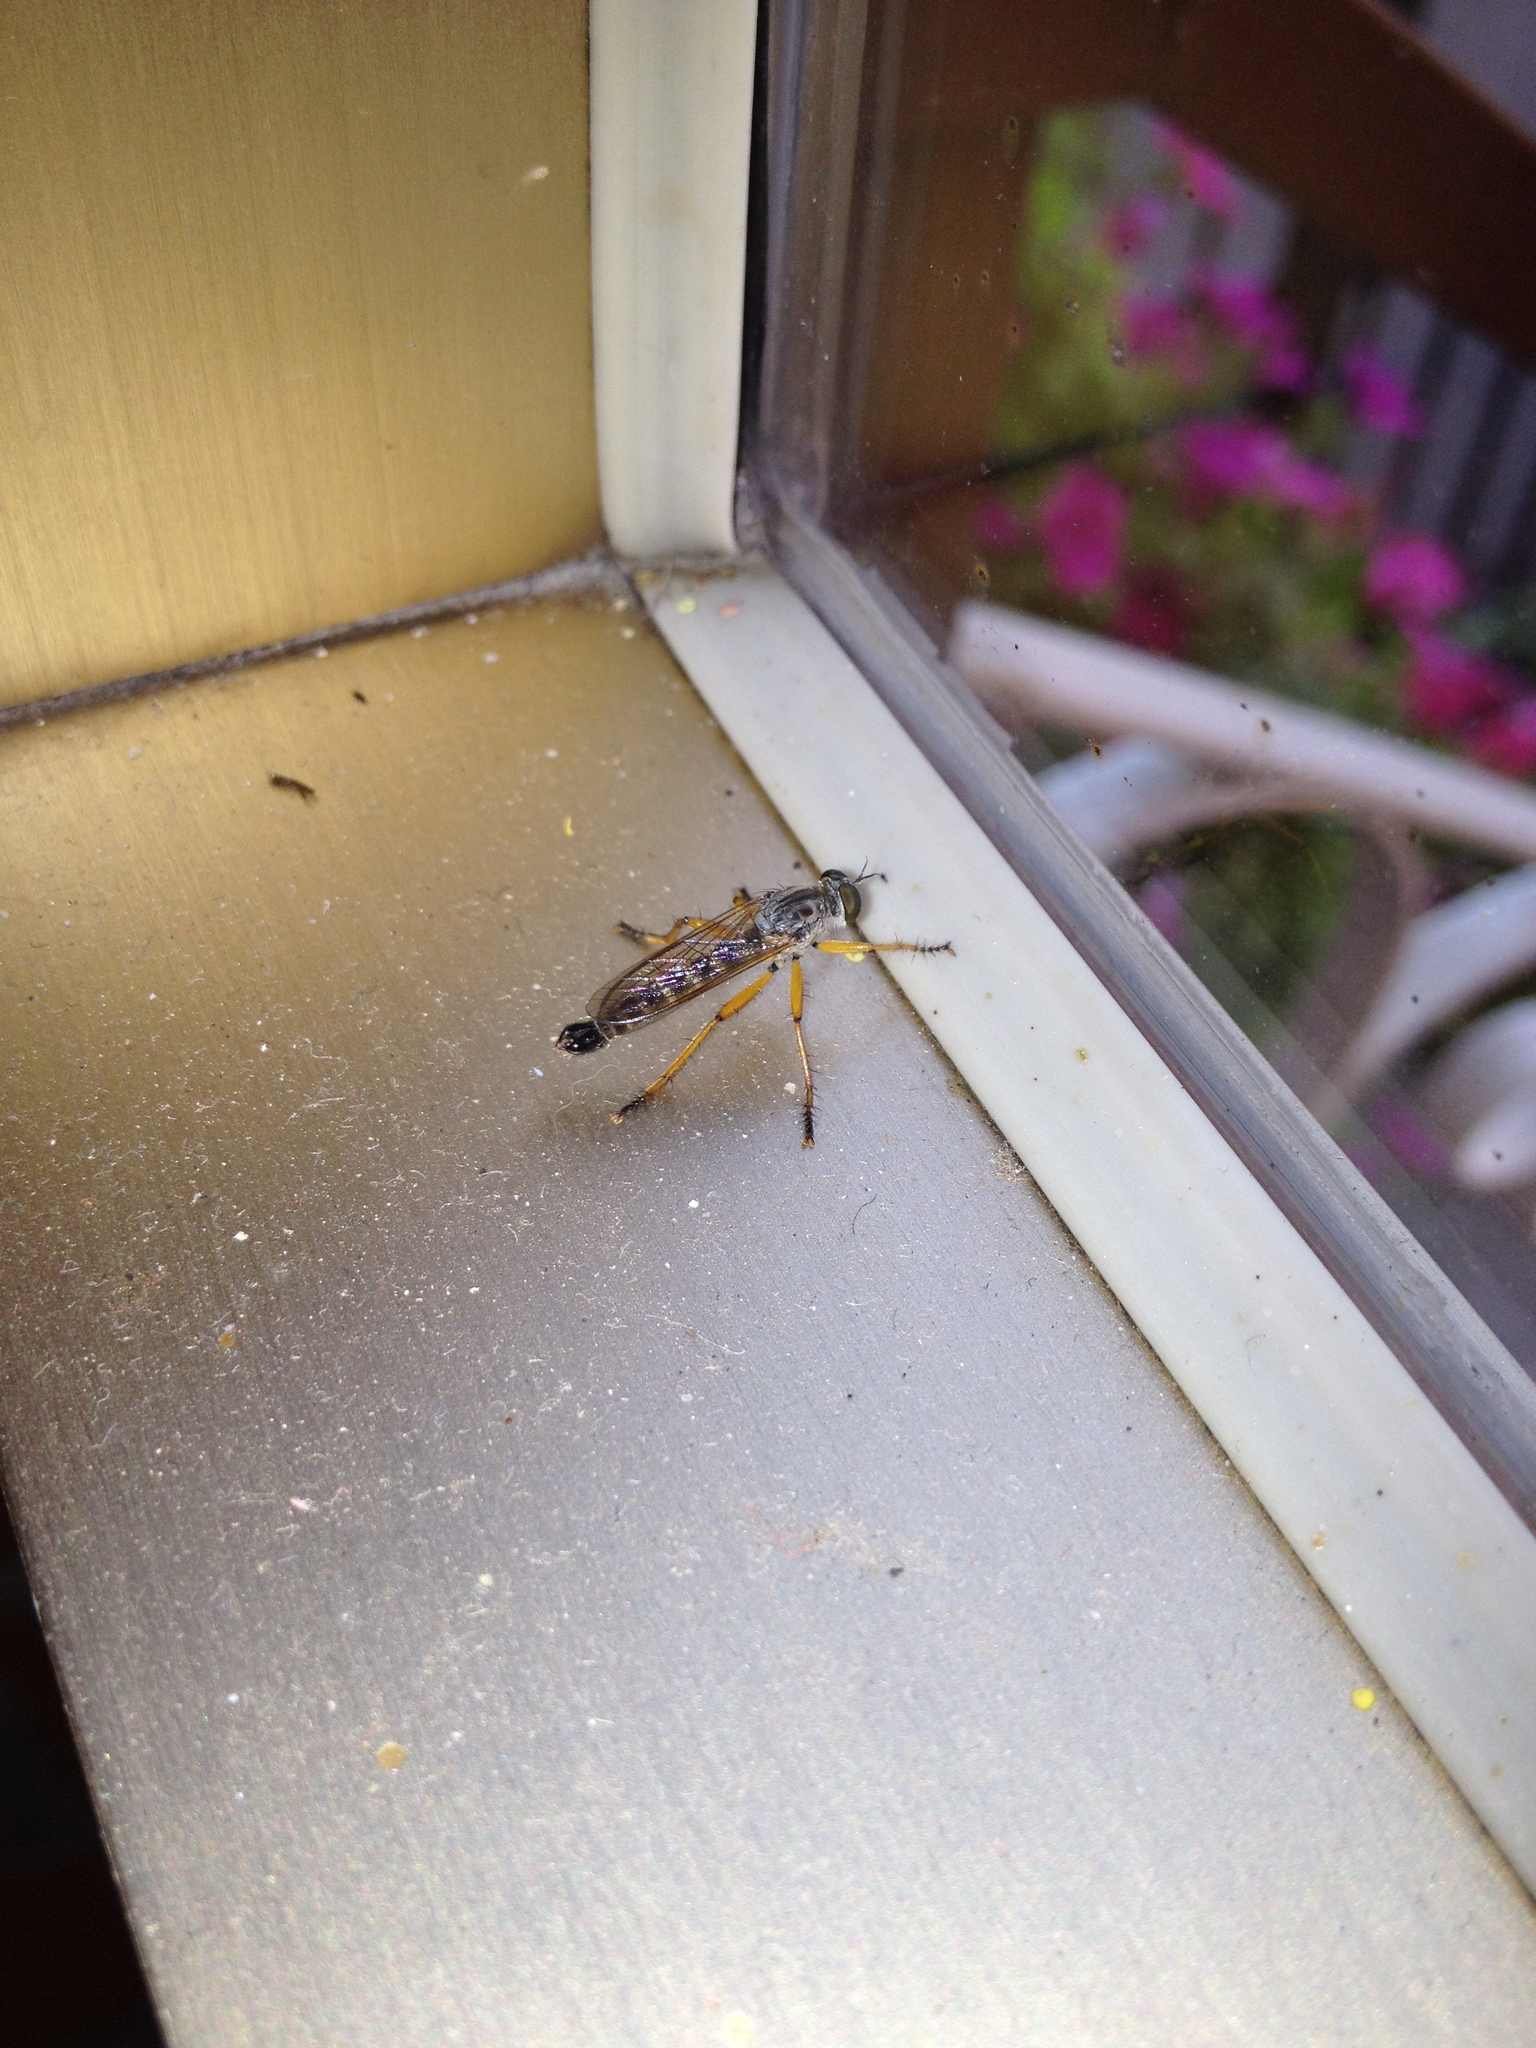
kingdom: Animalia
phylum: Arthropoda
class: Insecta
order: Diptera
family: Asilidae
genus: Neomochtherus
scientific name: Neomochtherus schineri
